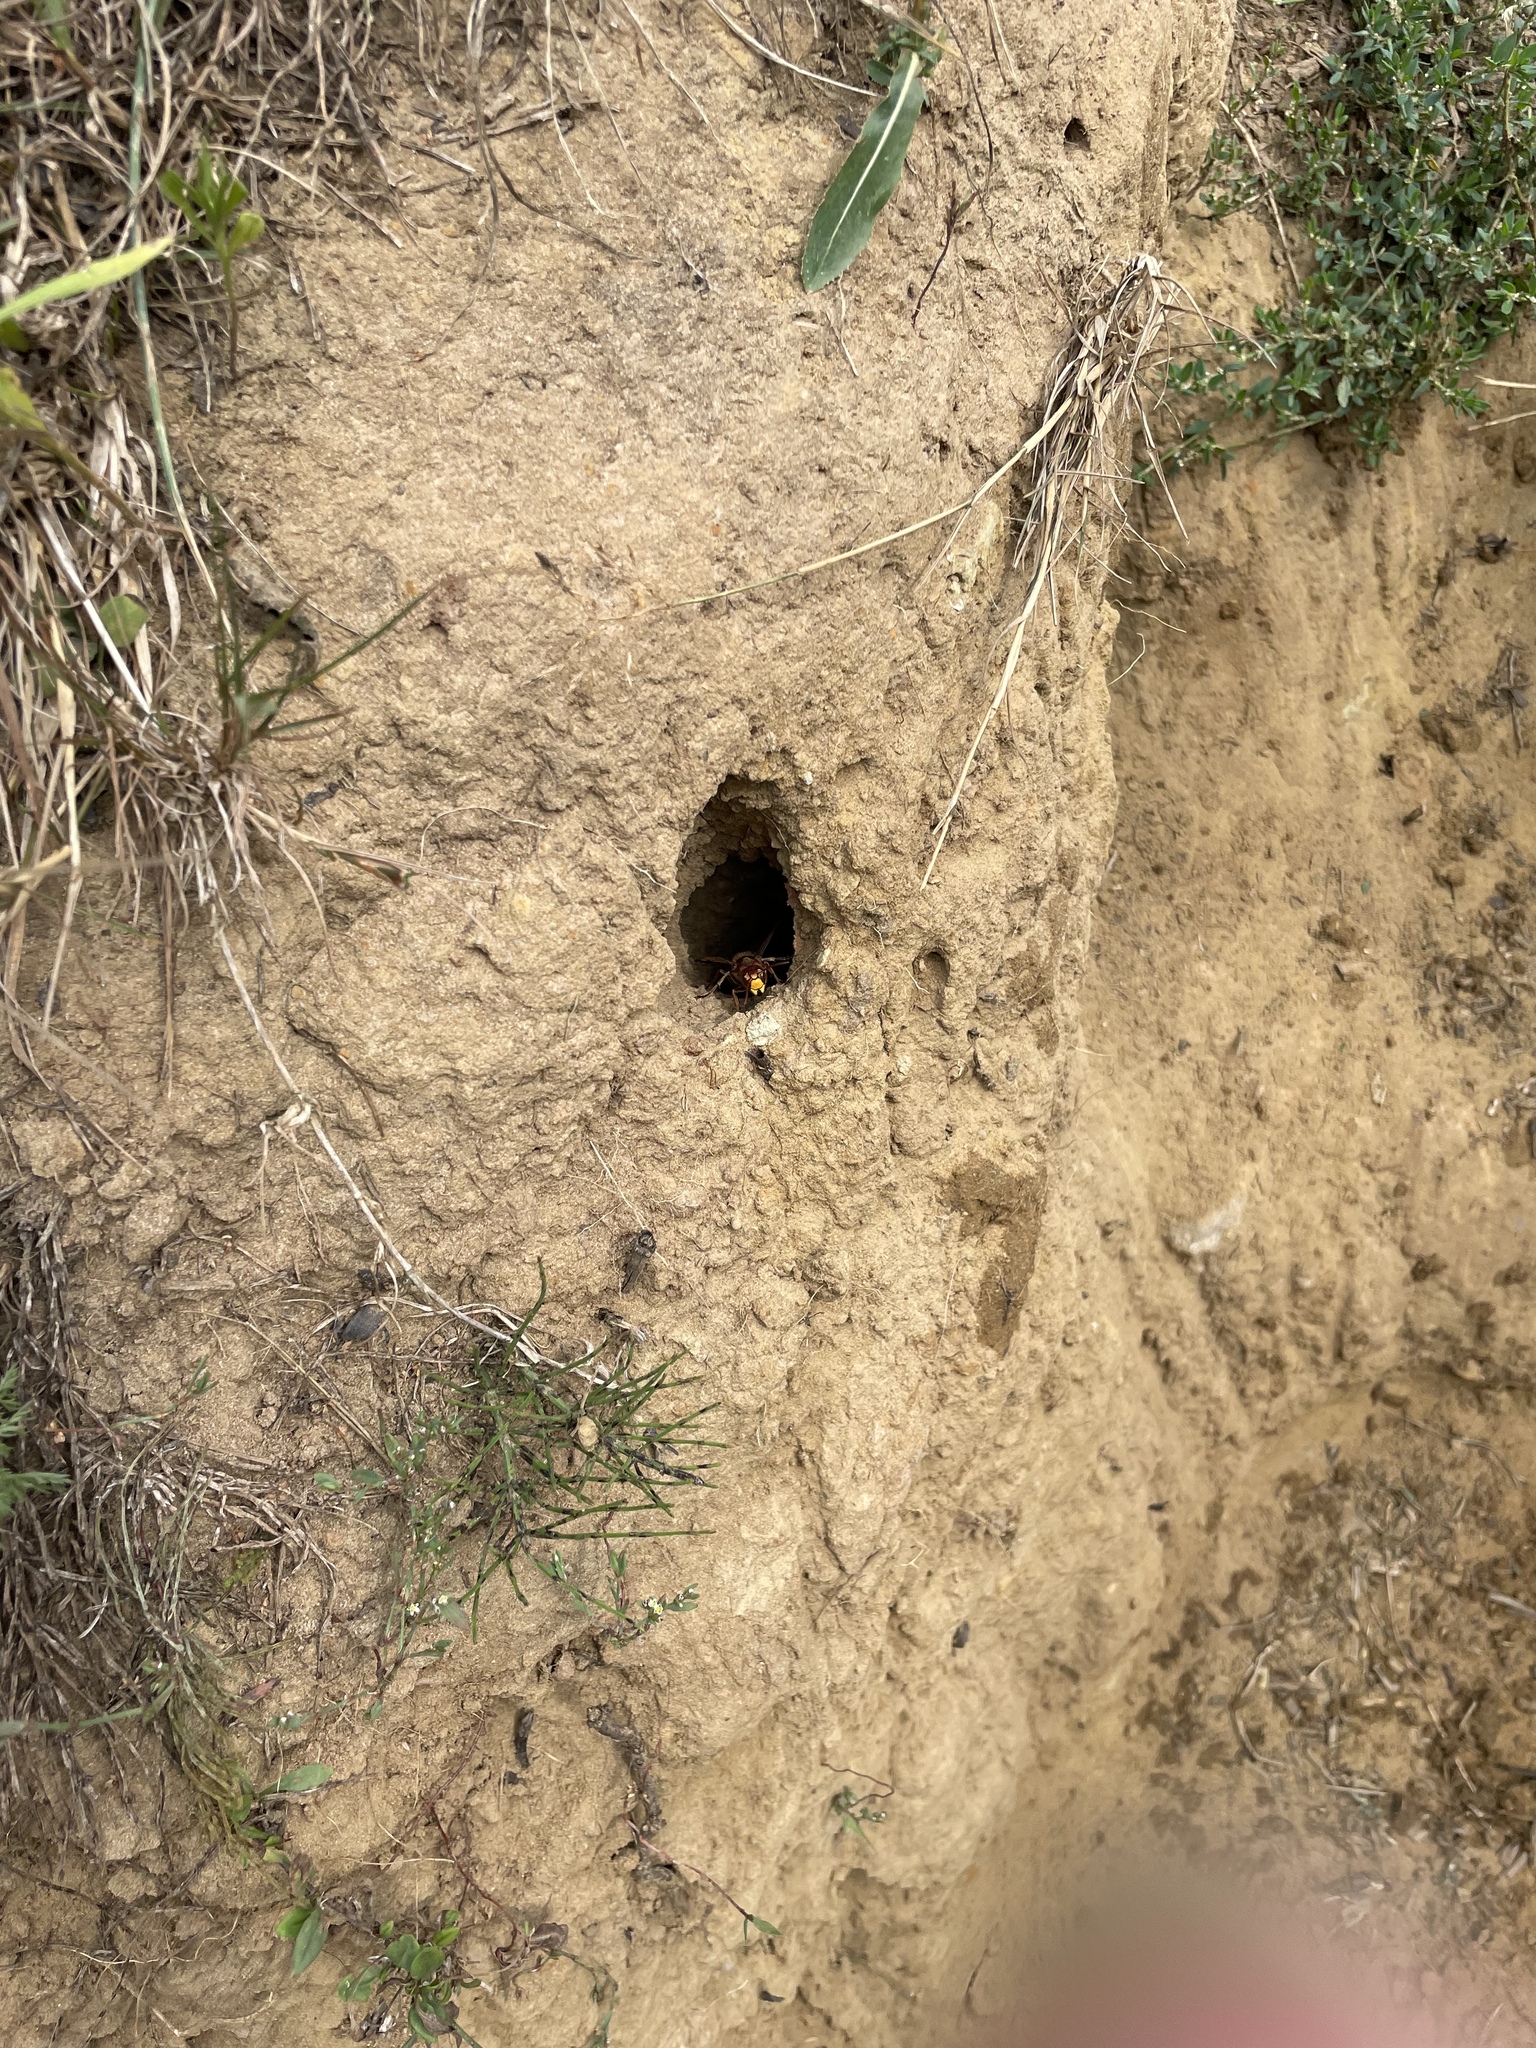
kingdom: Animalia
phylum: Arthropoda
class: Insecta
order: Hymenoptera
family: Vespidae
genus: Vespa
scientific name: Vespa crabro
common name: Hornet
